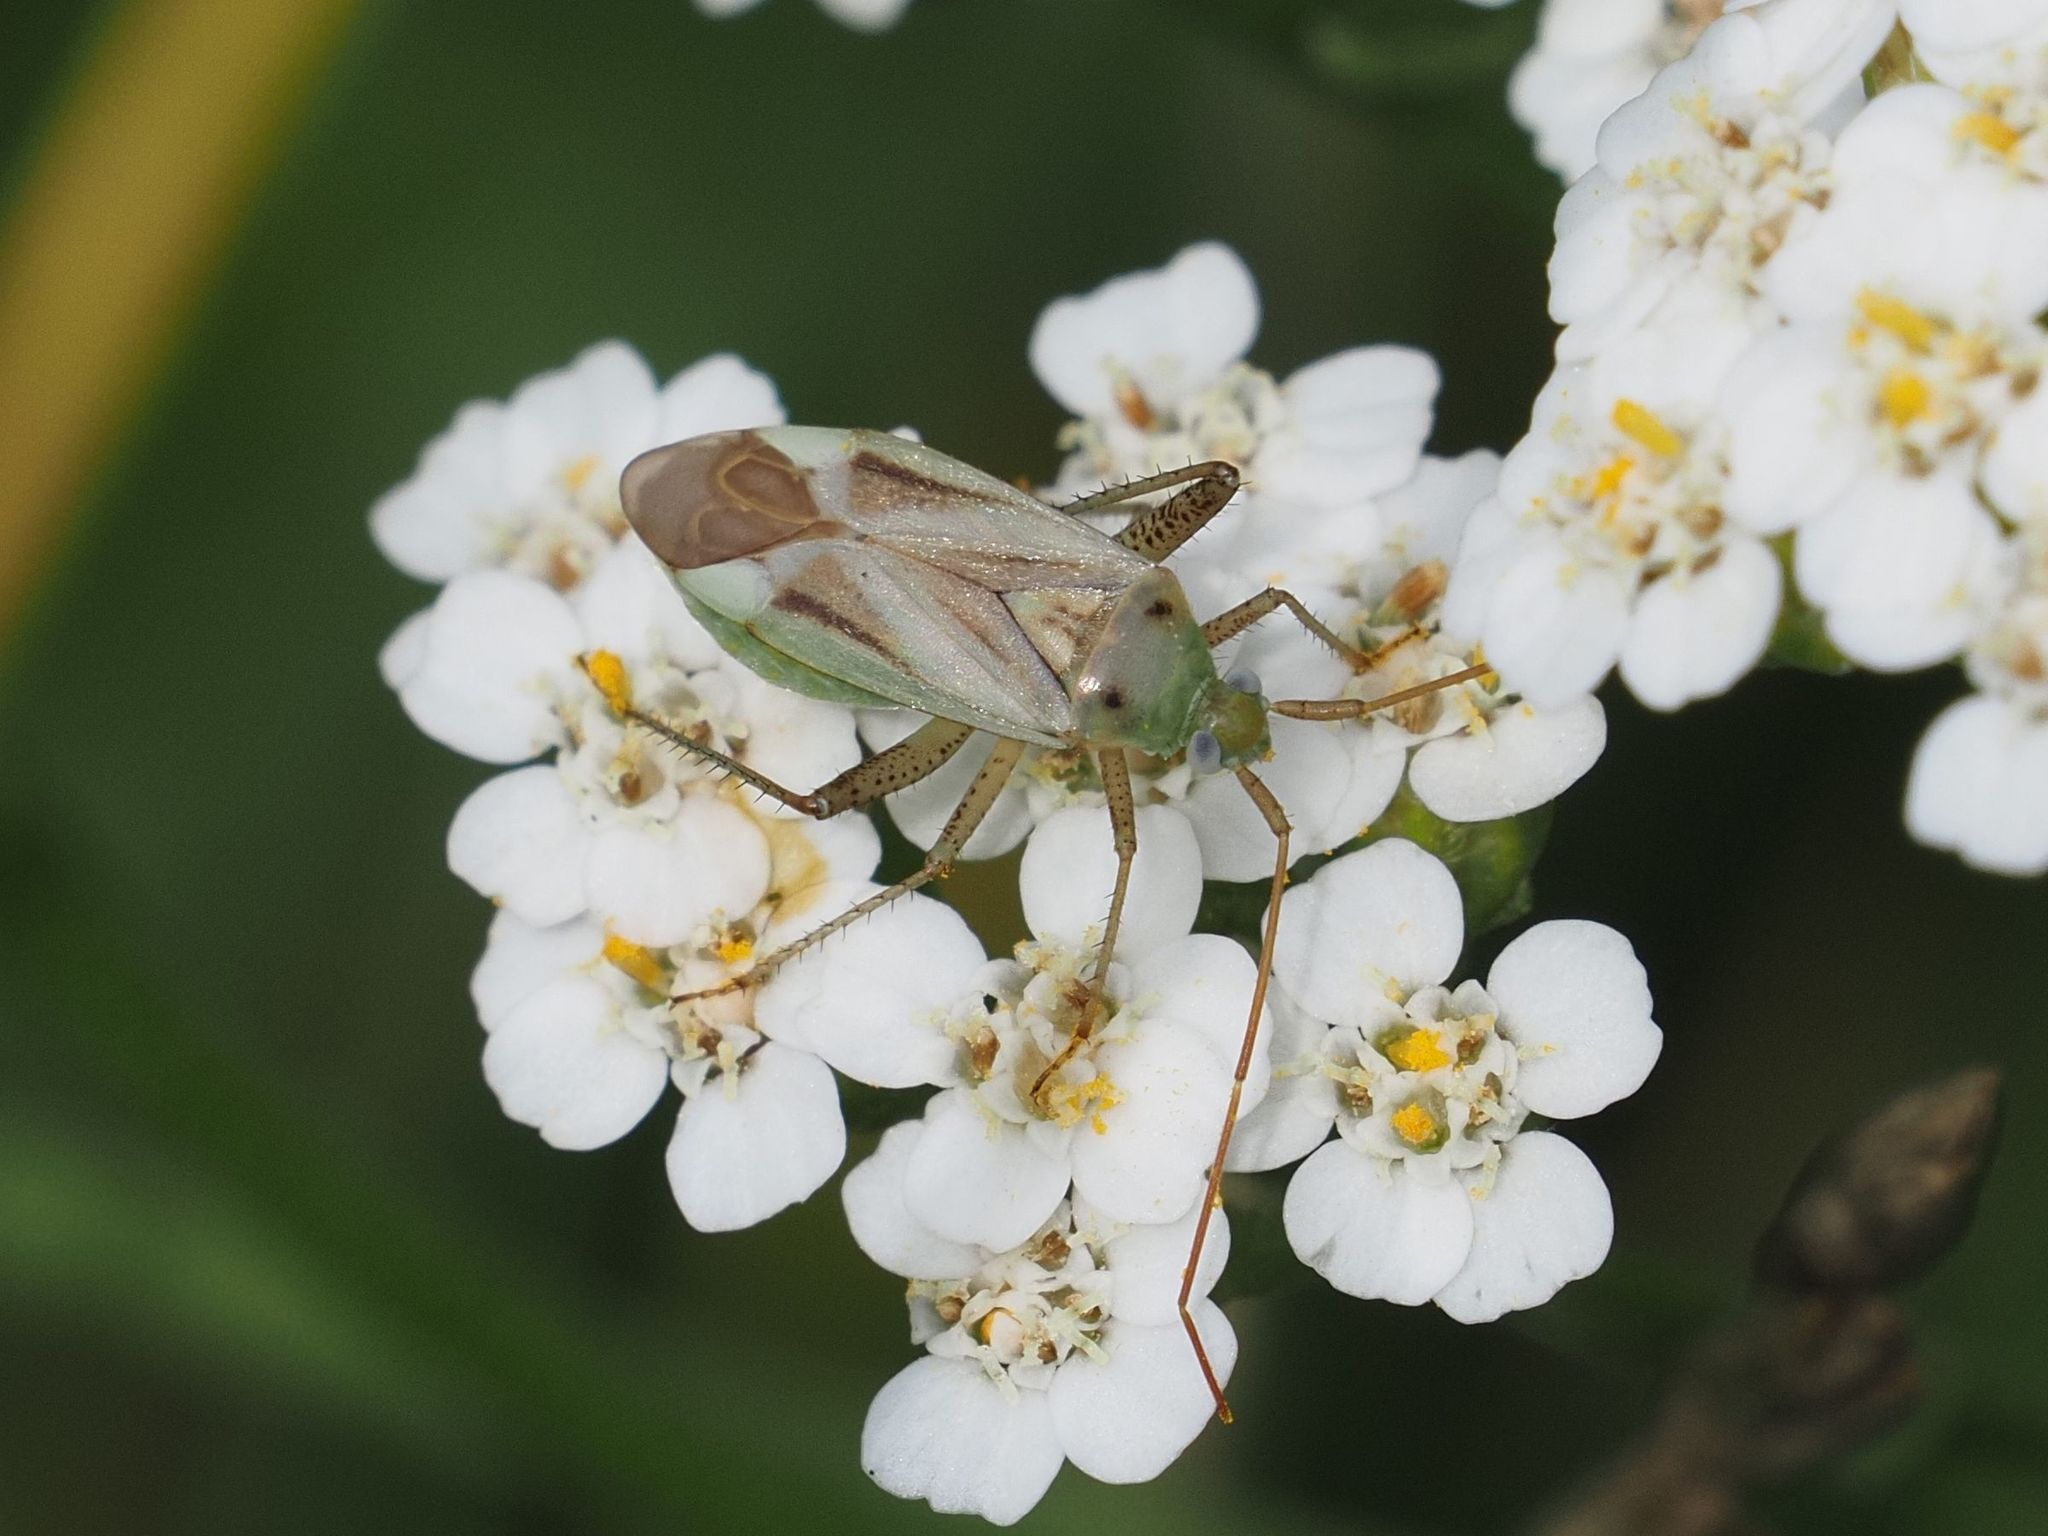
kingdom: Animalia
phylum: Arthropoda
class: Insecta
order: Hemiptera
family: Miridae
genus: Adelphocoris
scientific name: Adelphocoris lineolatus
